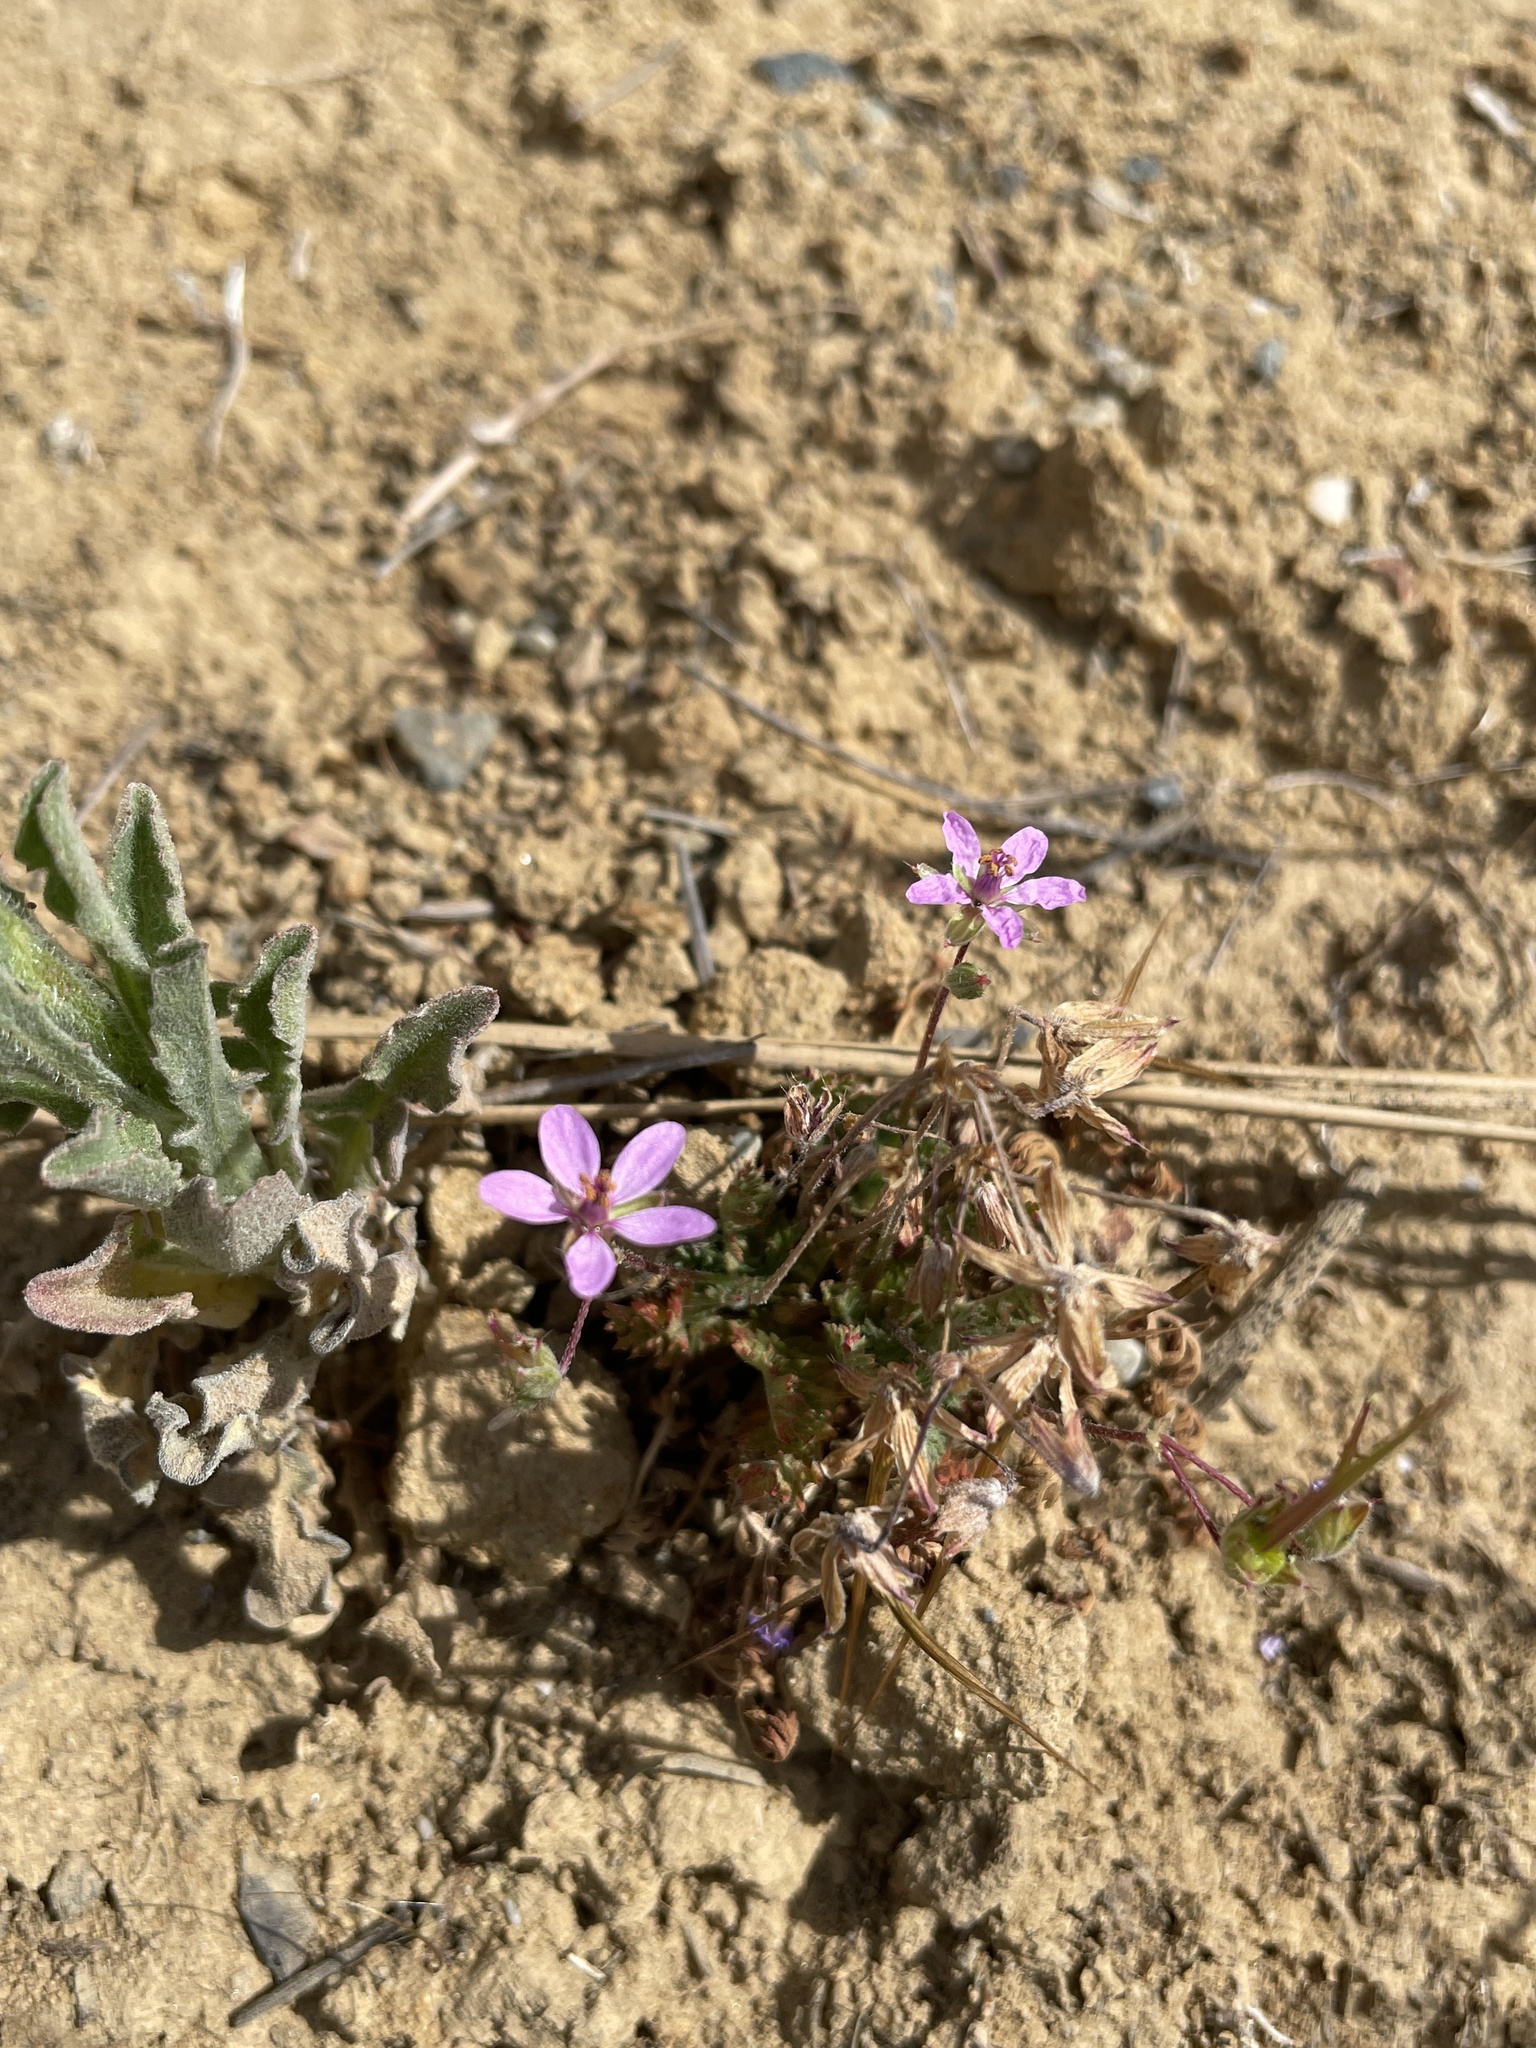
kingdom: Plantae
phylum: Tracheophyta
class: Magnoliopsida
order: Geraniales
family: Geraniaceae
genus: Erodium
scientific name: Erodium cicutarium
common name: Common stork's-bill
